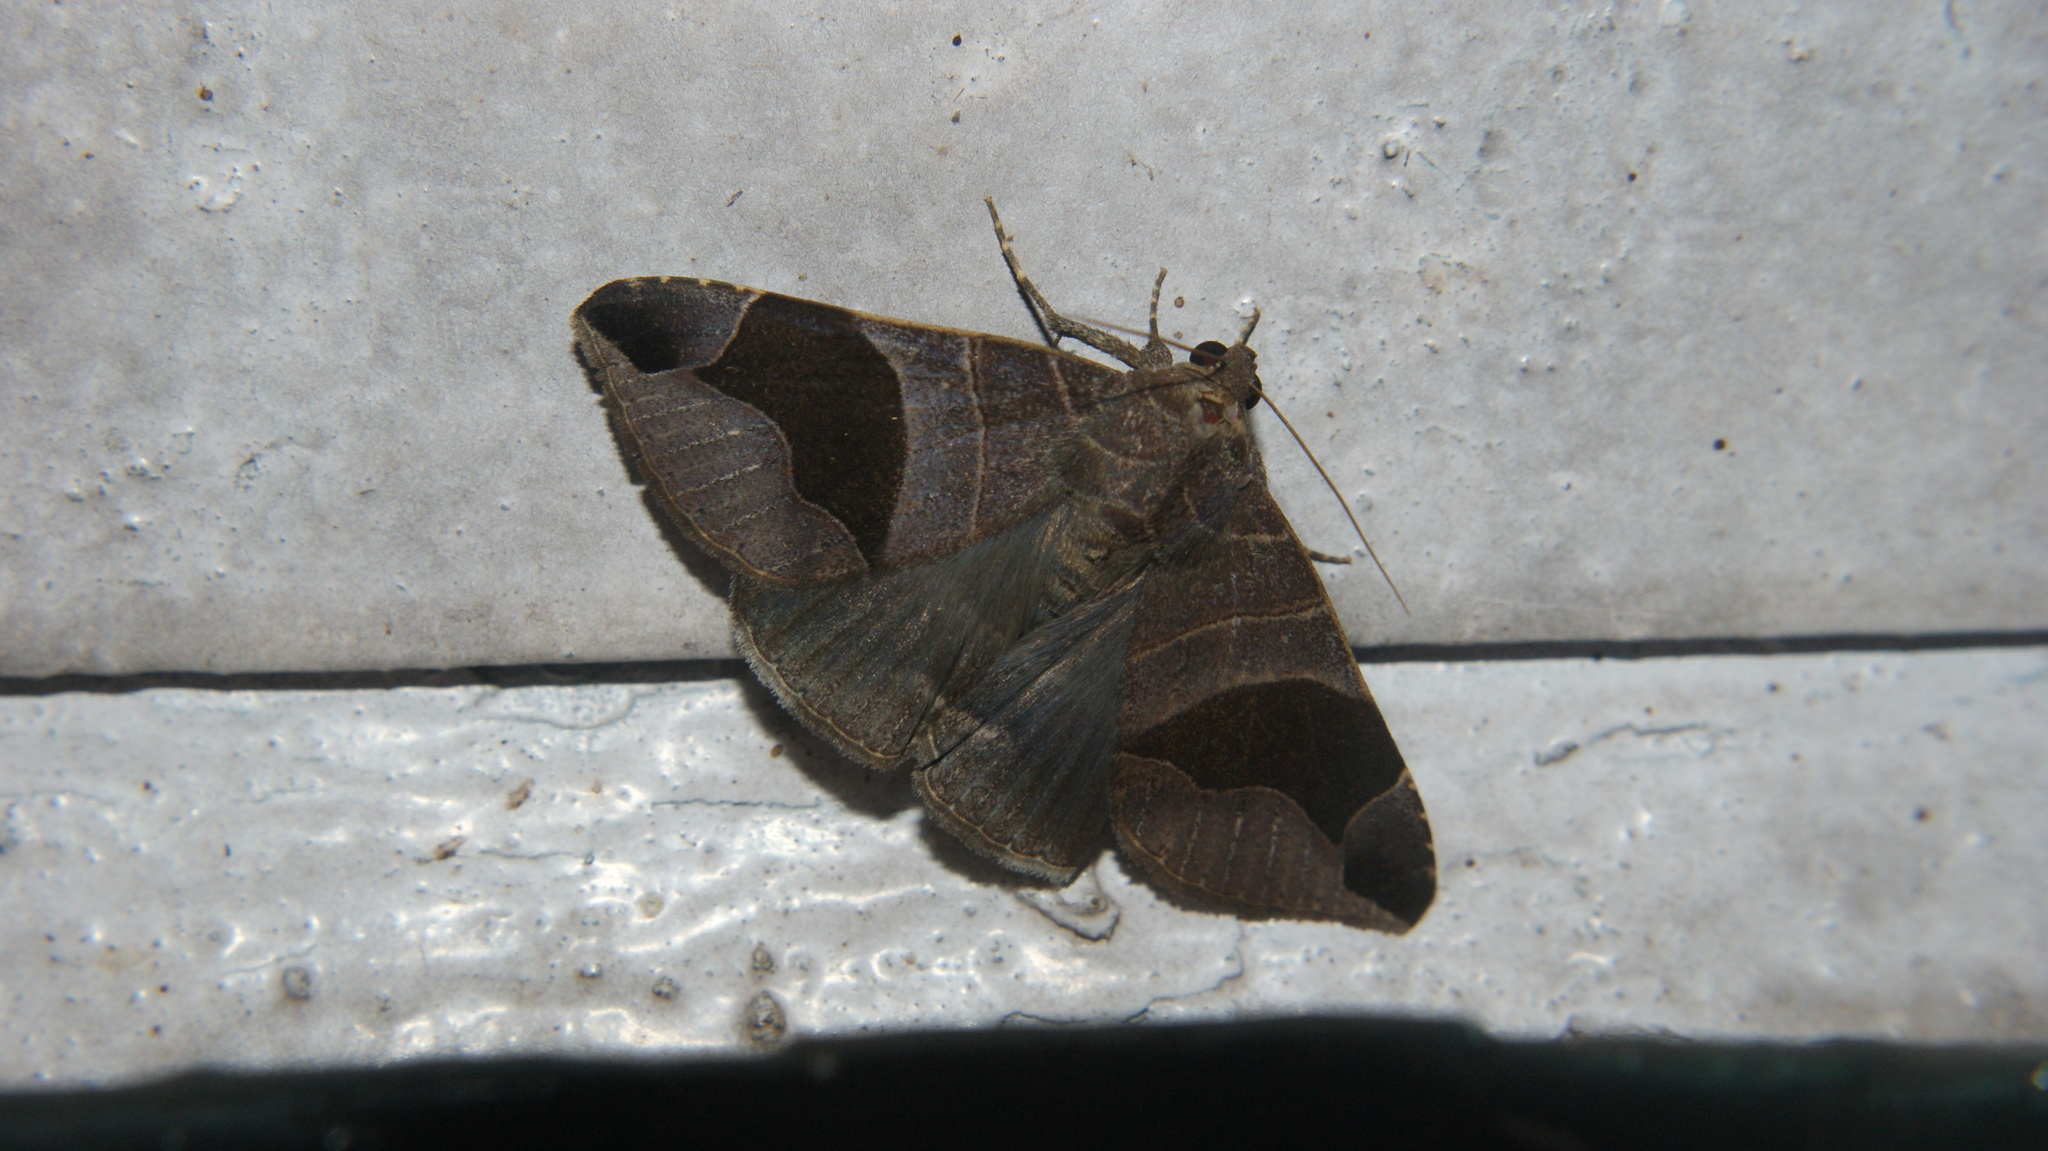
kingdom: Animalia
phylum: Arthropoda
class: Insecta
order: Lepidoptera
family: Erebidae
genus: Bastilla
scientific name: Bastilla joviana
